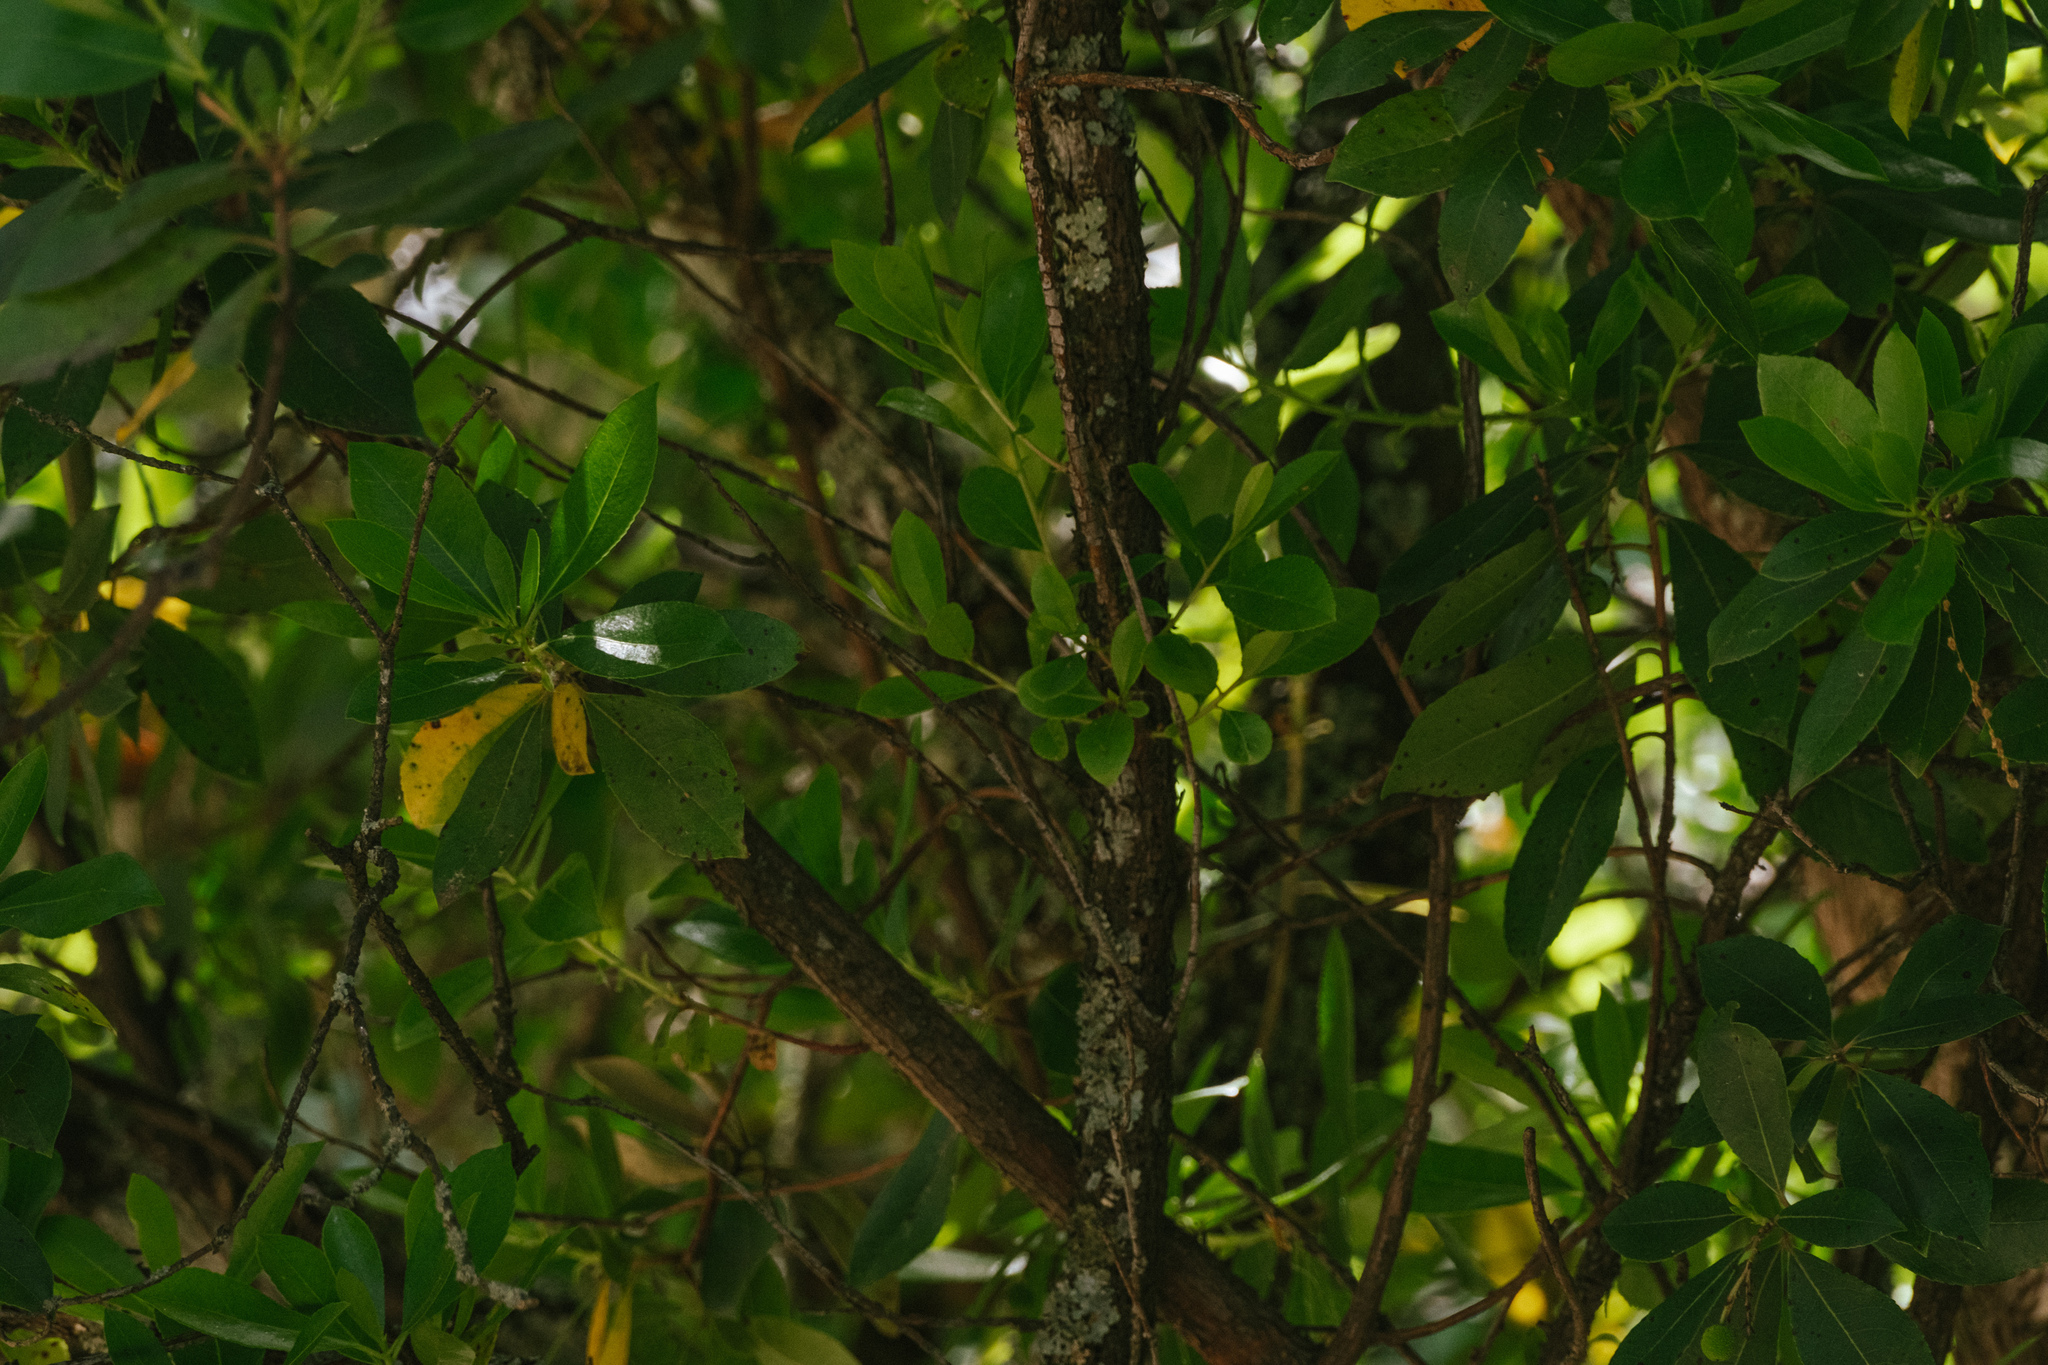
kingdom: Plantae
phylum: Tracheophyta
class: Magnoliopsida
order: Ericales
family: Ericaceae
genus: Arbutus
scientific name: Arbutus unedo
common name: Strawberry-tree
